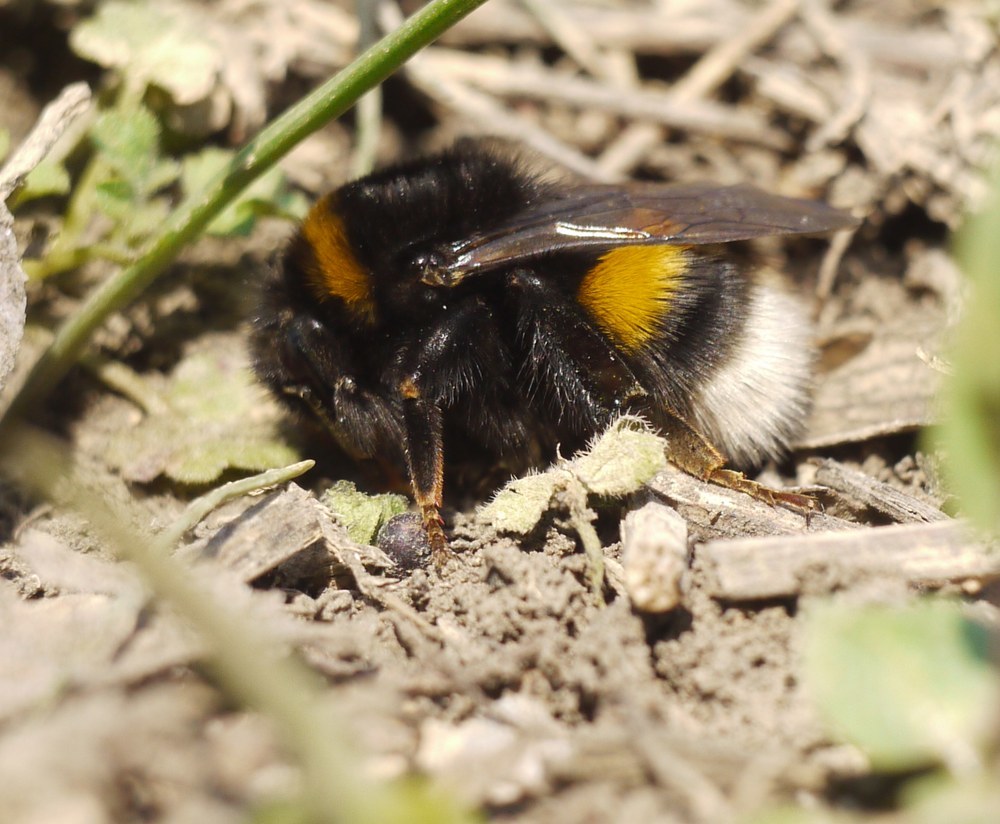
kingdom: Animalia
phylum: Arthropoda
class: Insecta
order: Hymenoptera
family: Apidae
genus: Bombus
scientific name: Bombus terrestris
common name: Buff-tailed bumblebee
